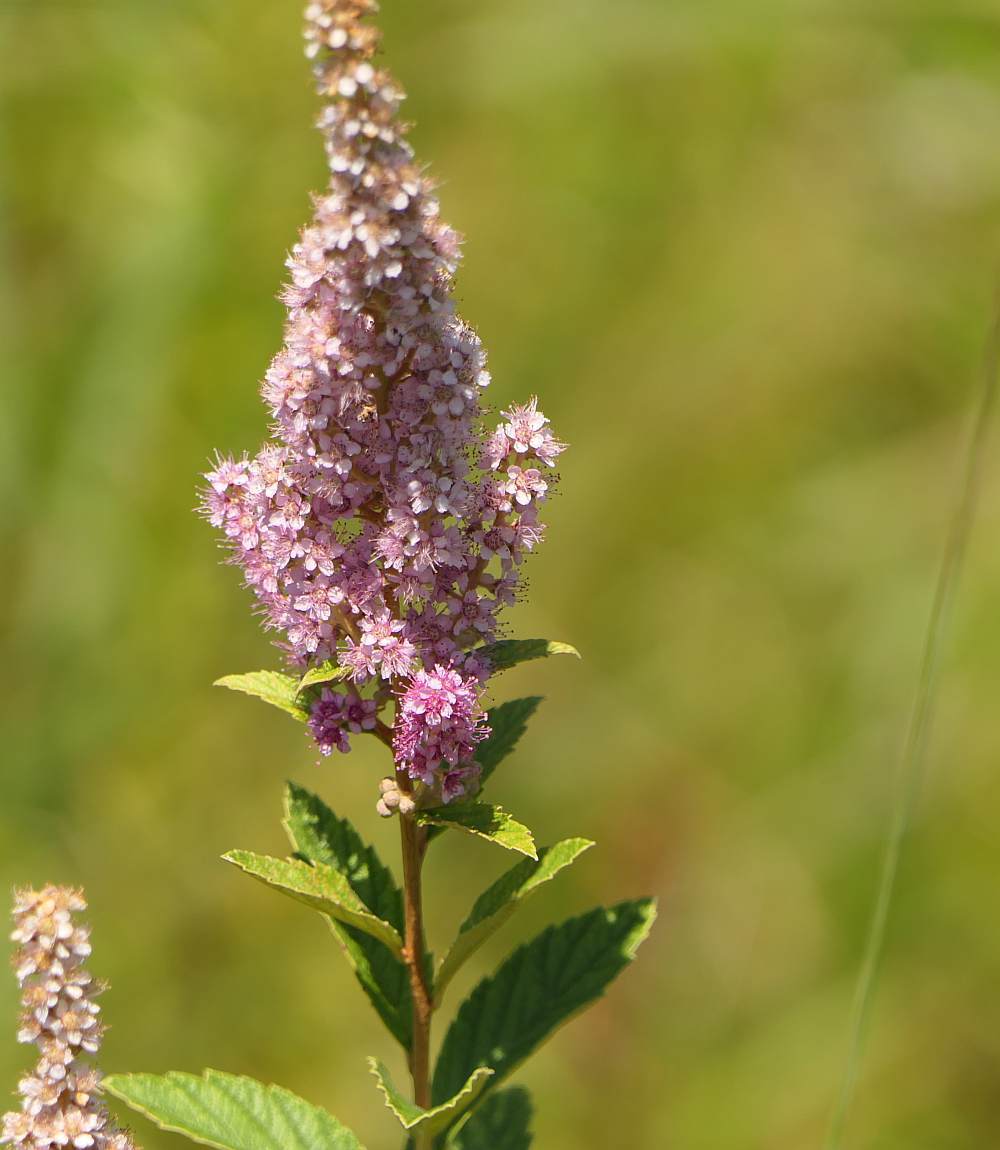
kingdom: Plantae
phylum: Tracheophyta
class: Magnoliopsida
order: Rosales
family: Rosaceae
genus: Spiraea
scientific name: Spiraea tomentosa
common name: Hardhack
